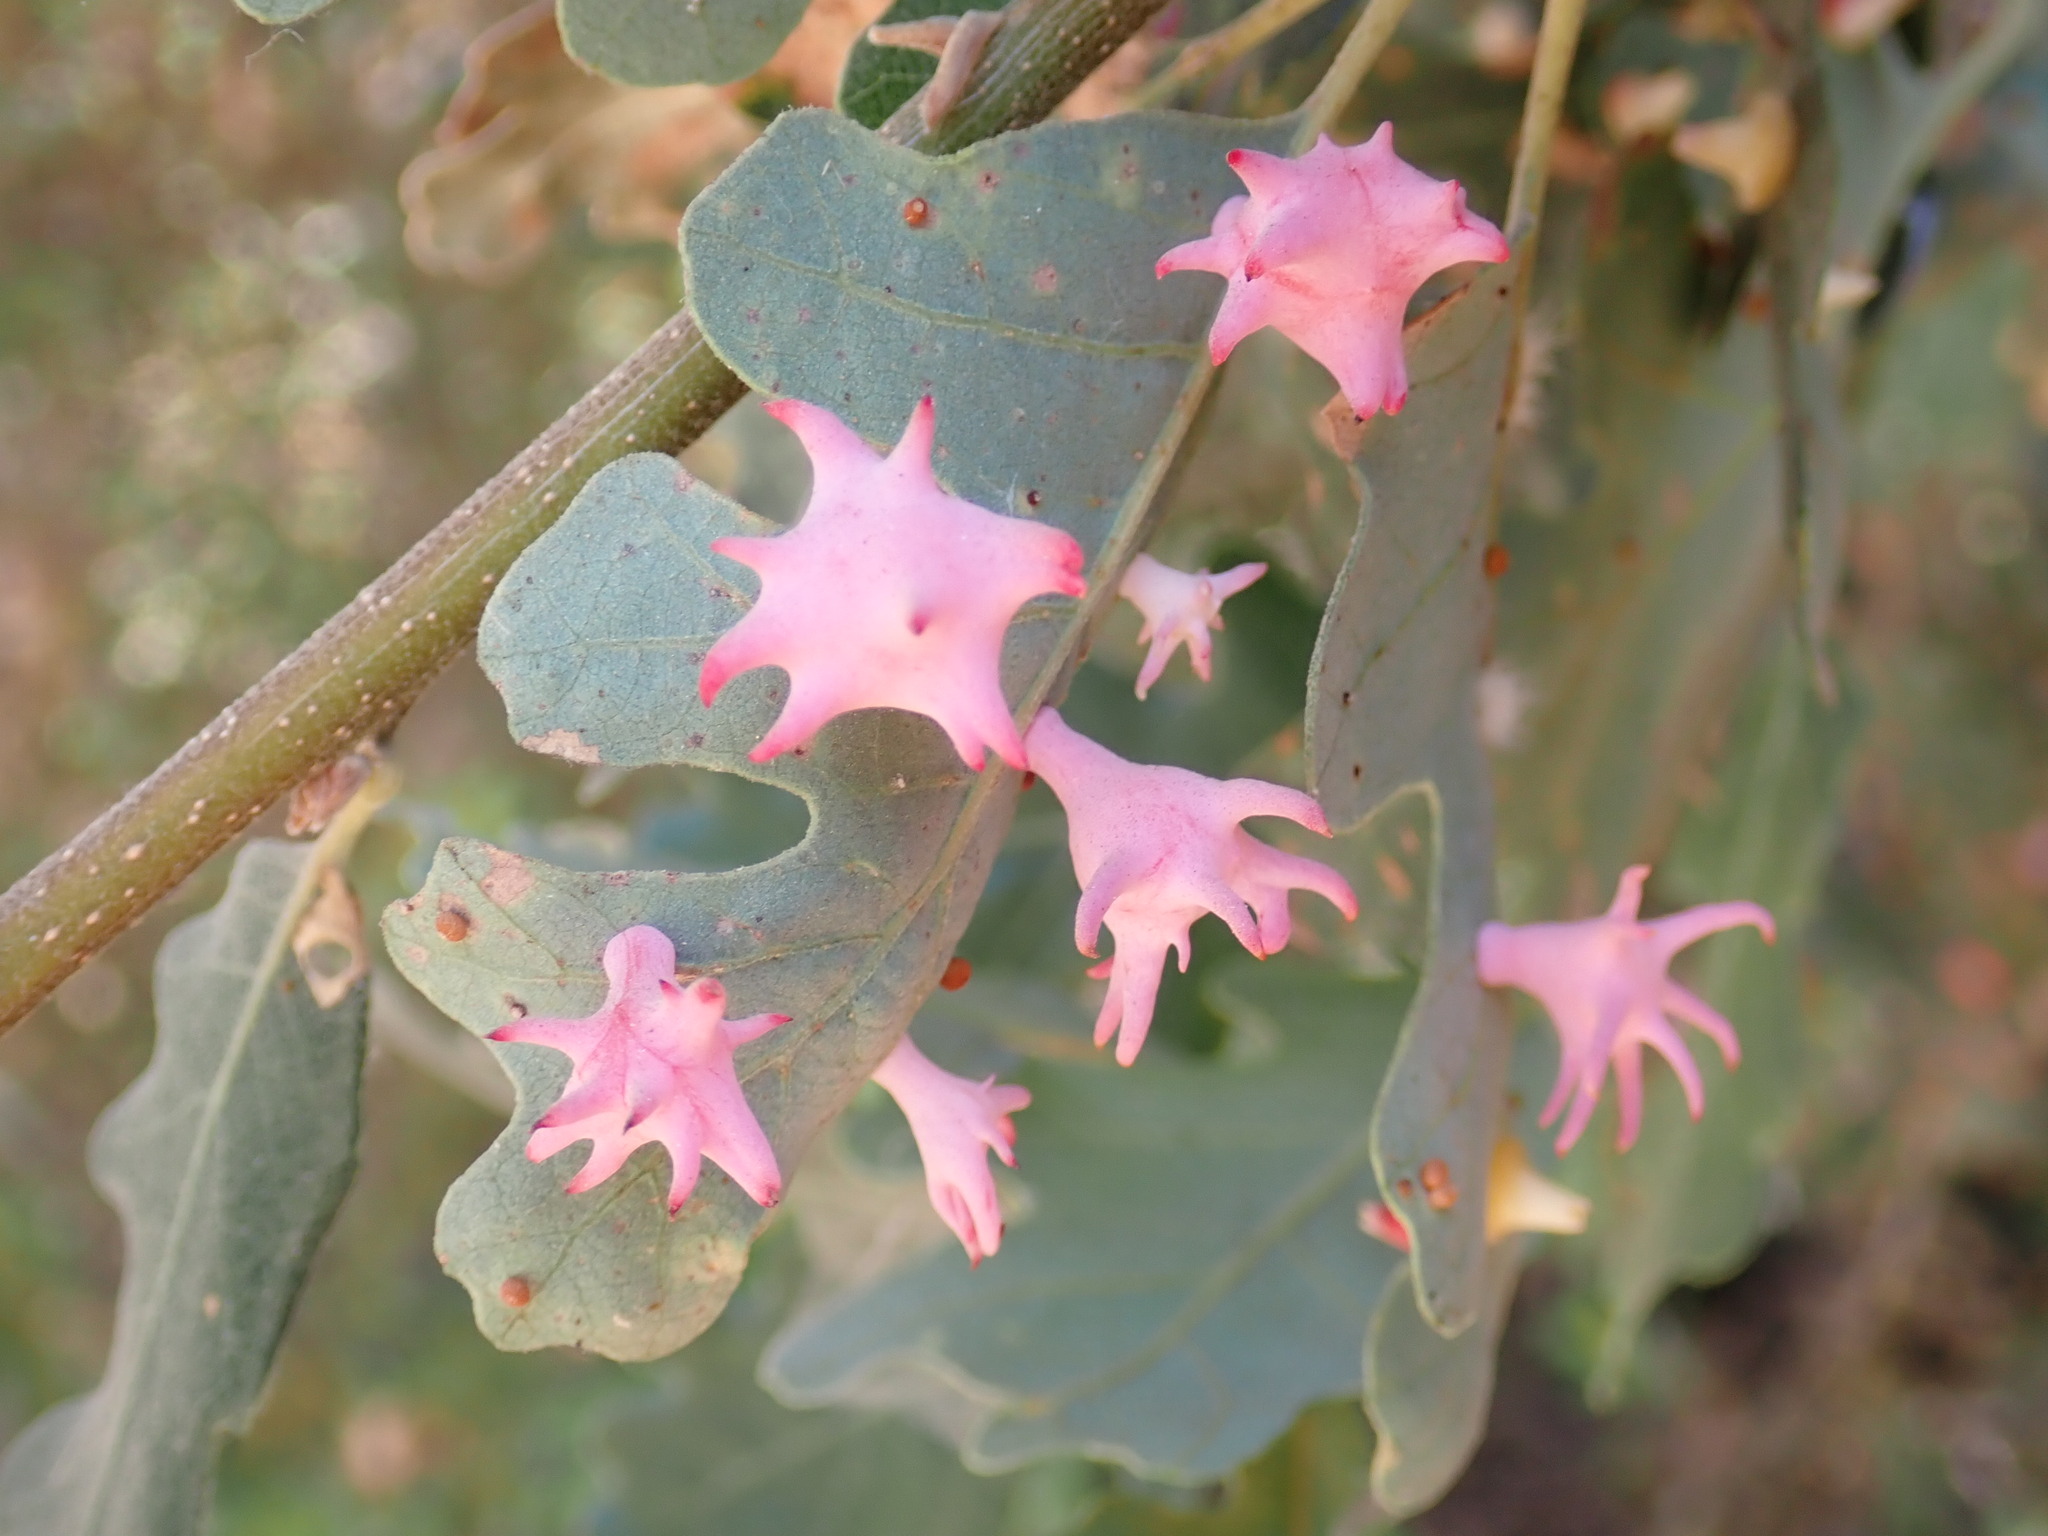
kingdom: Animalia
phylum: Arthropoda
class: Insecta
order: Hymenoptera
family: Cynipidae
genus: Cynips
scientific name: Cynips douglasi
